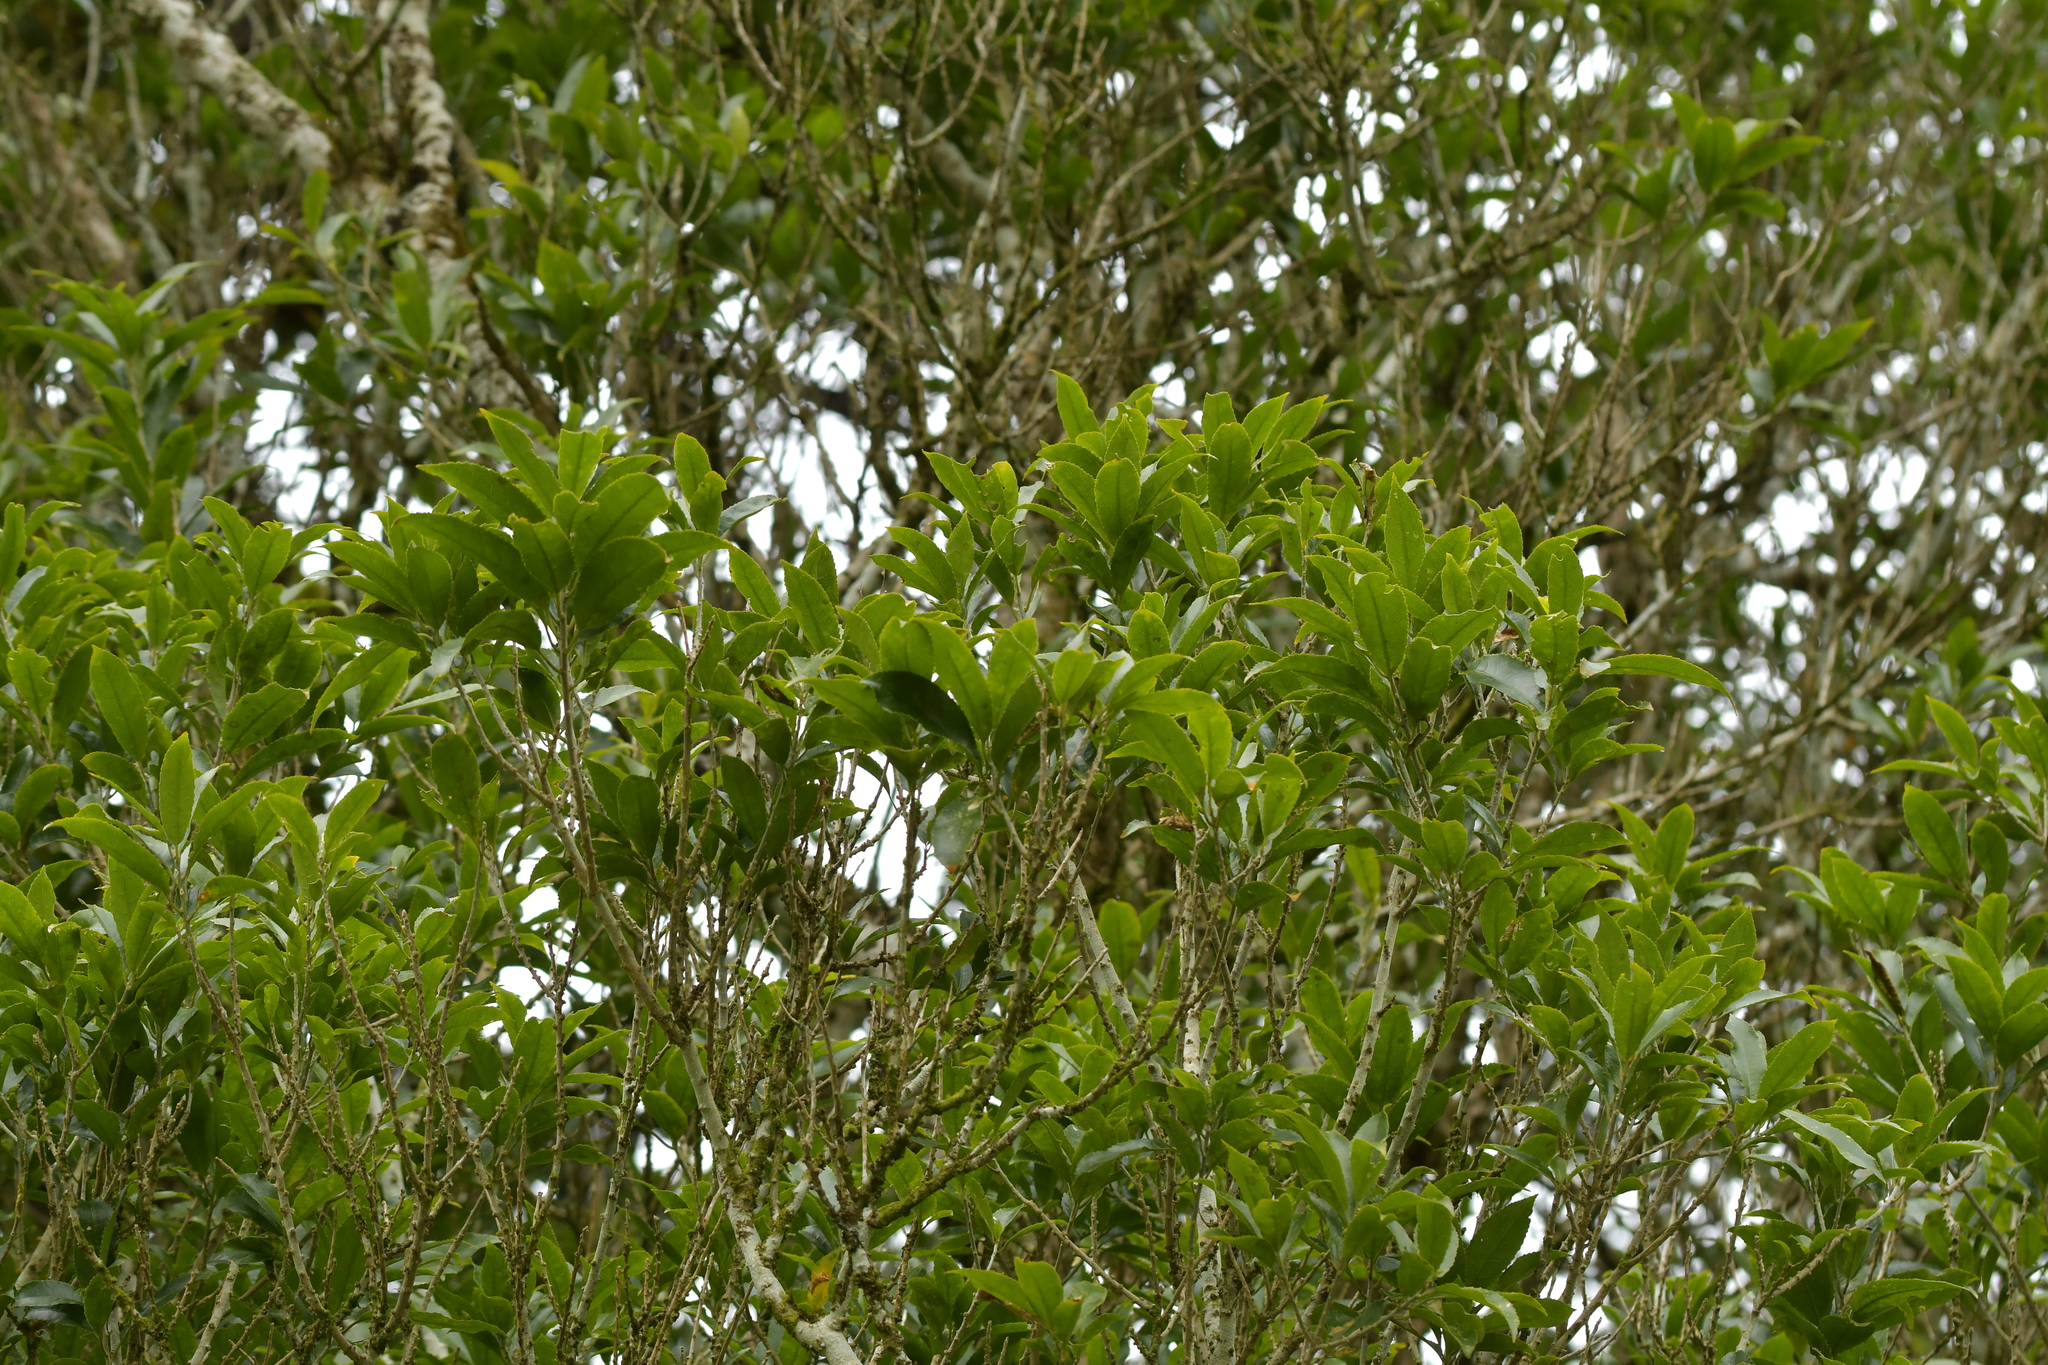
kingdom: Plantae
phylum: Tracheophyta
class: Magnoliopsida
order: Malpighiales
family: Violaceae
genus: Melicytus
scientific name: Melicytus ramiflorus
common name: Mahoe
